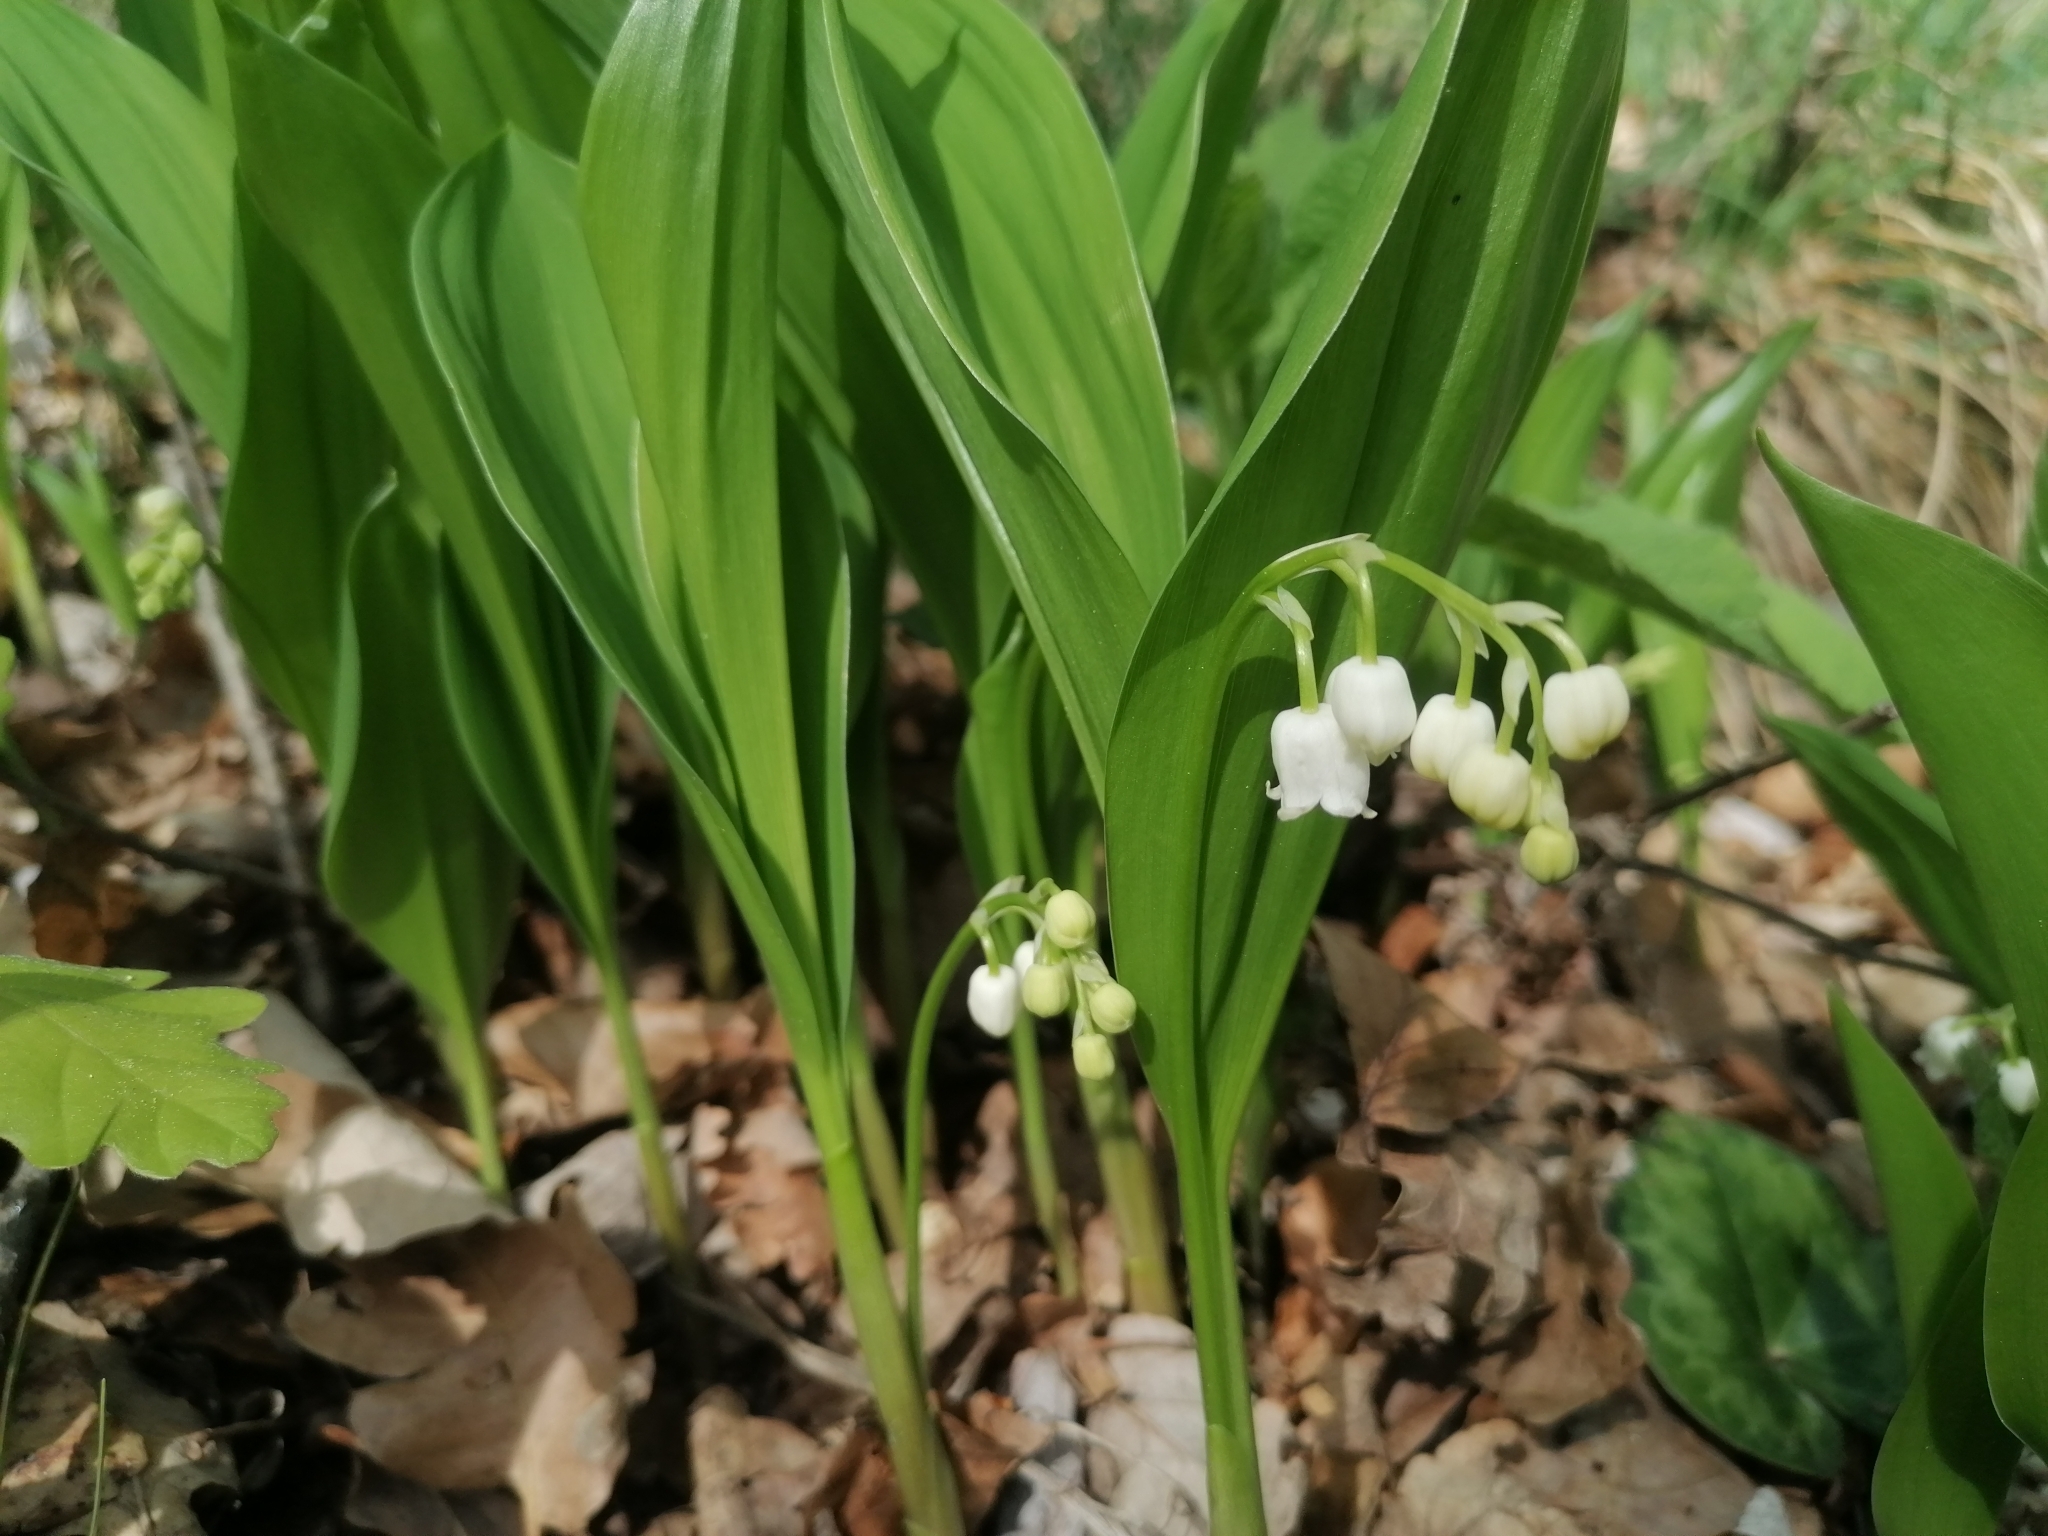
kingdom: Plantae
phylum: Tracheophyta
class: Liliopsida
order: Asparagales
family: Asparagaceae
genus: Convallaria
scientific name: Convallaria majalis
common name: Lily-of-the-valley
